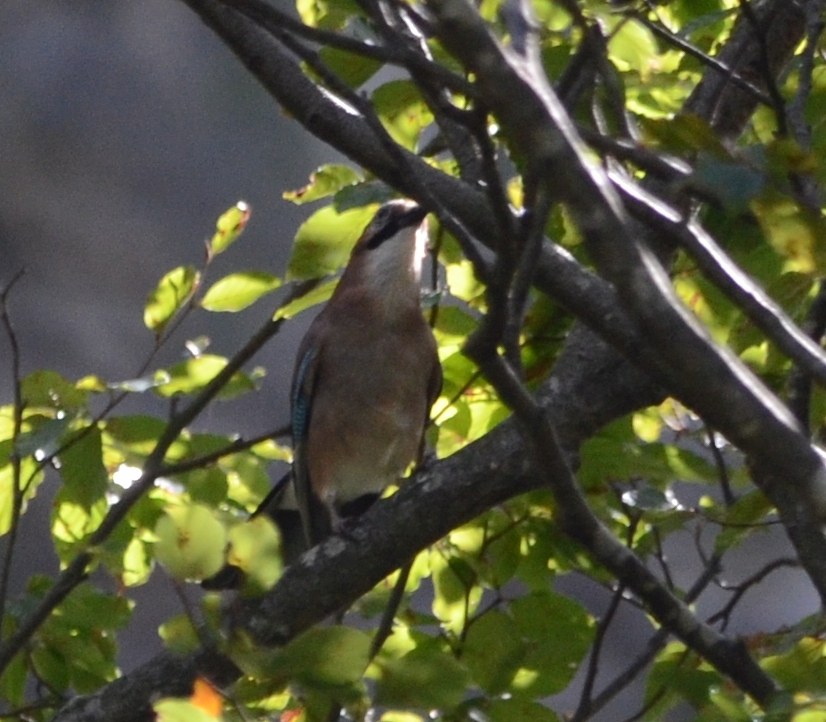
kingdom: Animalia
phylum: Chordata
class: Aves
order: Passeriformes
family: Corvidae
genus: Garrulus
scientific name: Garrulus glandarius
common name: Eurasian jay
